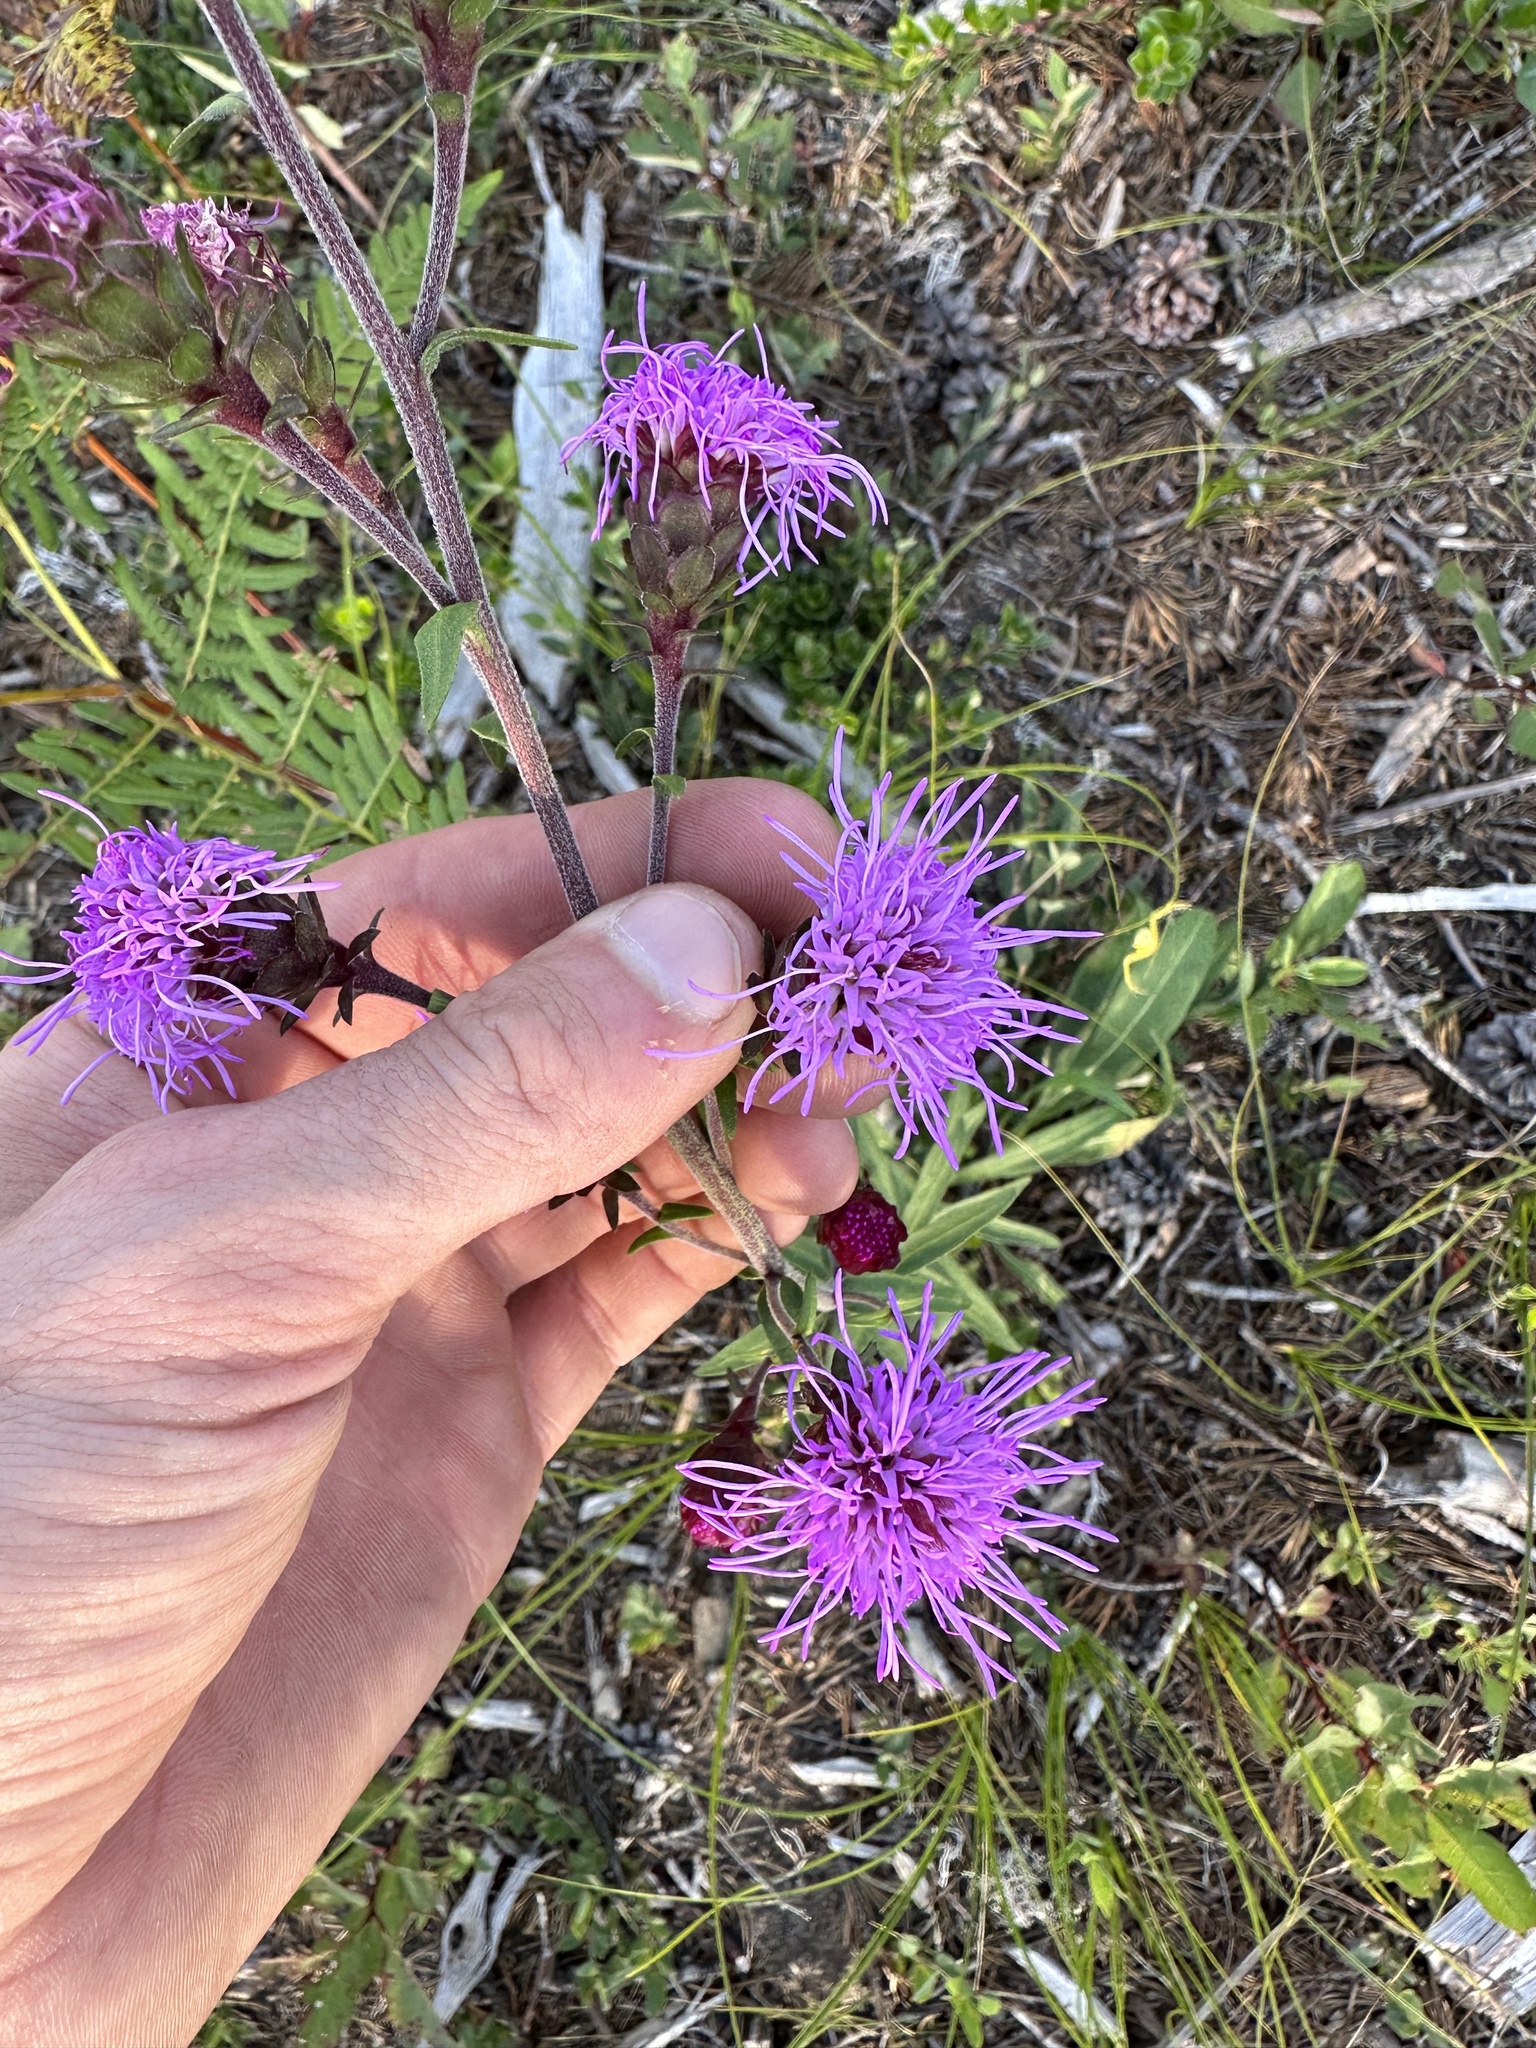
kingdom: Plantae
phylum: Tracheophyta
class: Magnoliopsida
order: Asterales
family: Asteraceae
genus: Liatris
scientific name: Liatris scariosa
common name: Northern gayfeather
